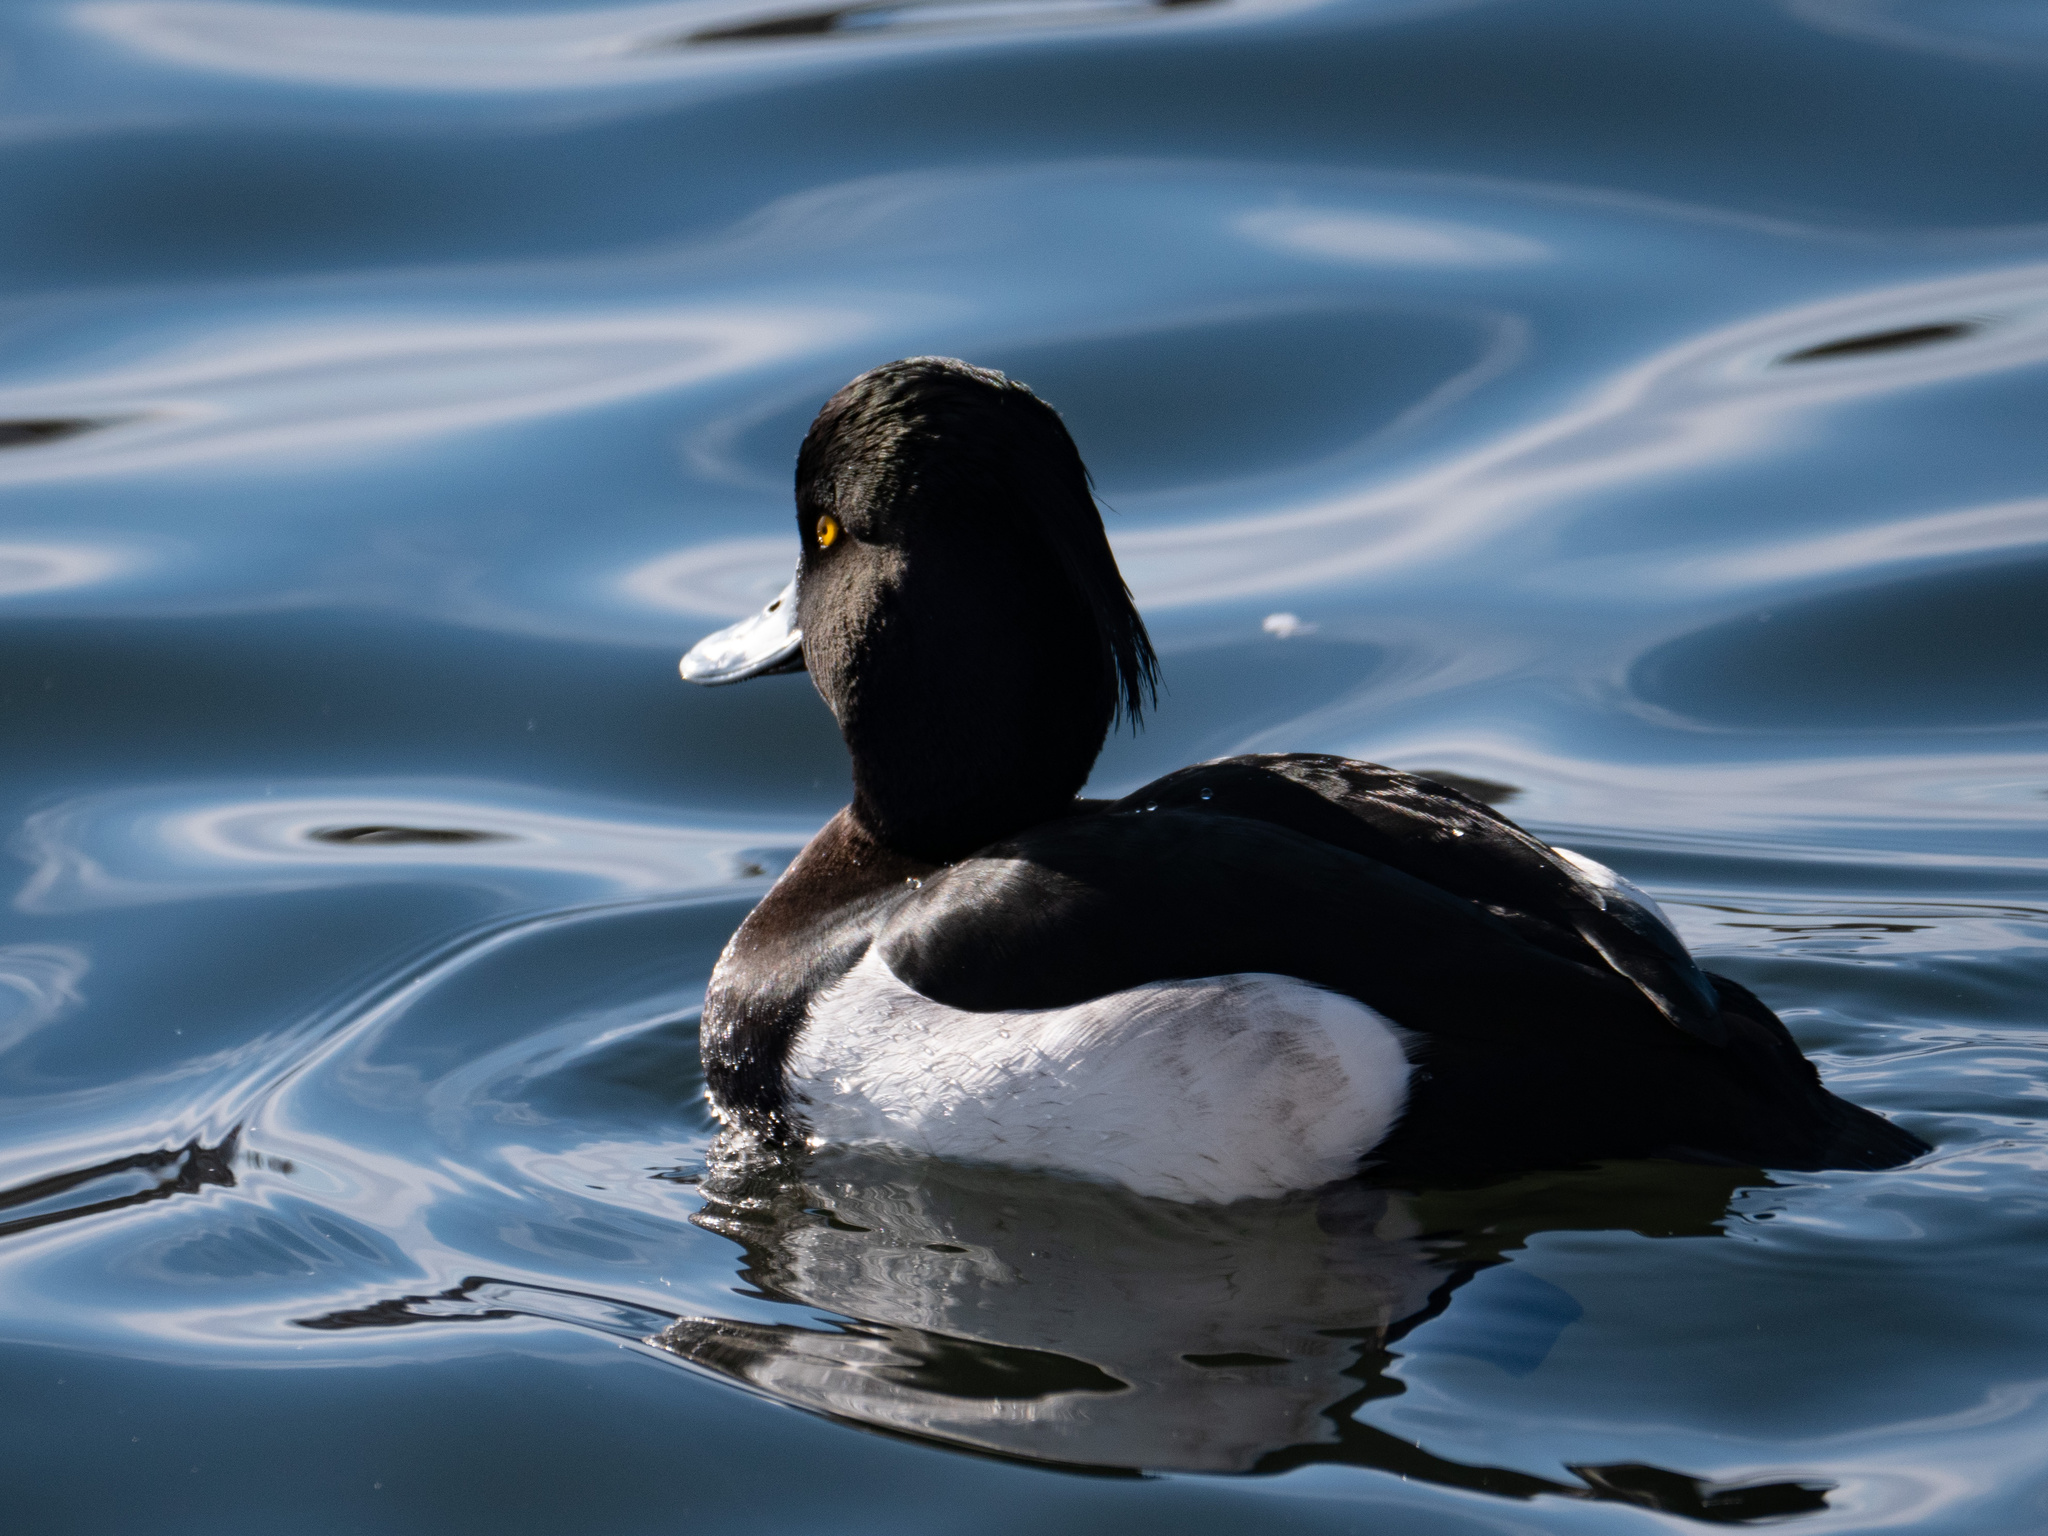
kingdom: Animalia
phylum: Chordata
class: Aves
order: Anseriformes
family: Anatidae
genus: Aythya
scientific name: Aythya fuligula
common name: Tufted duck
